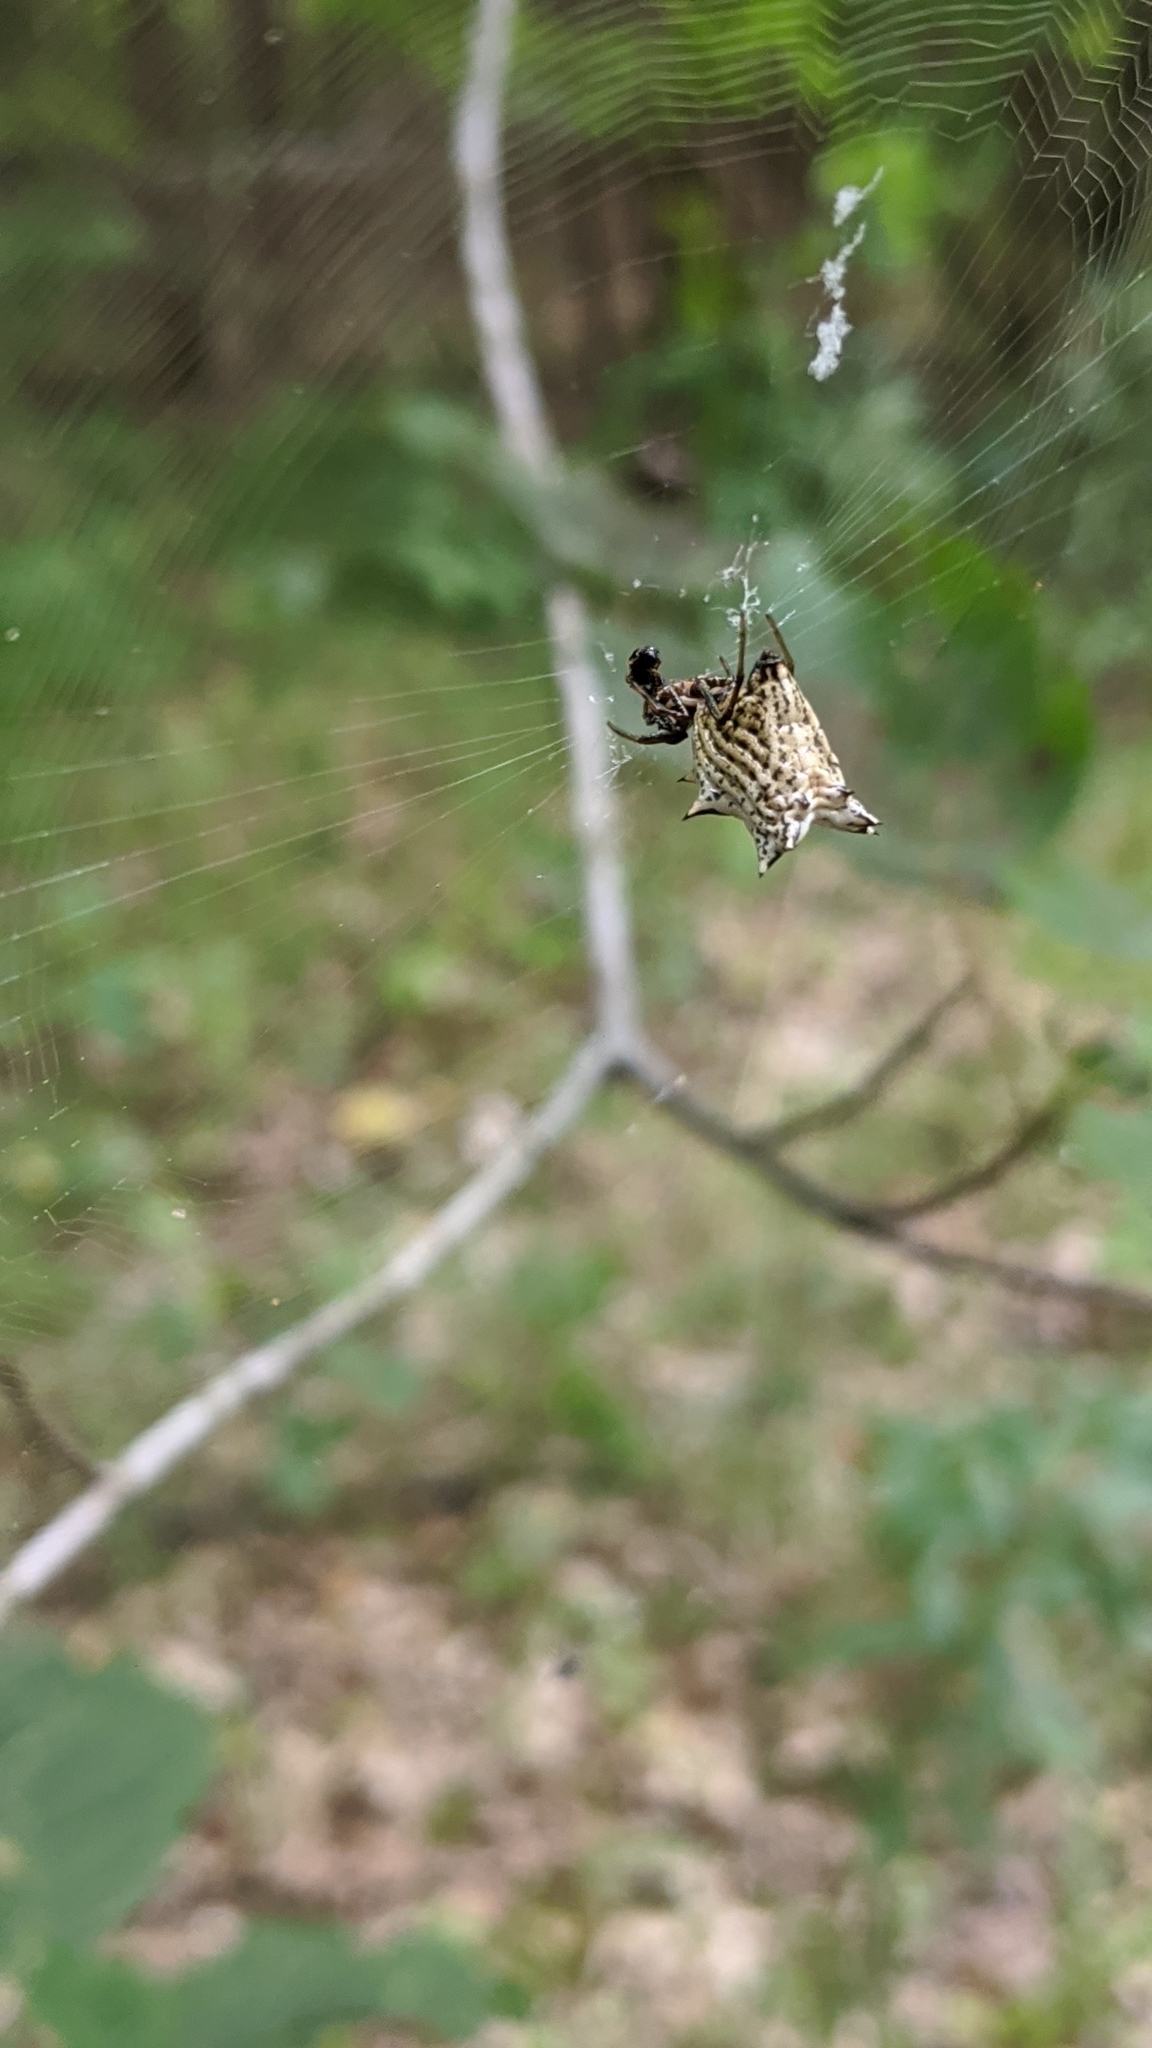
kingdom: Animalia
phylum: Arthropoda
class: Arachnida
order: Araneae
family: Araneidae
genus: Micrathena
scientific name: Micrathena gracilis
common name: Orb weavers
